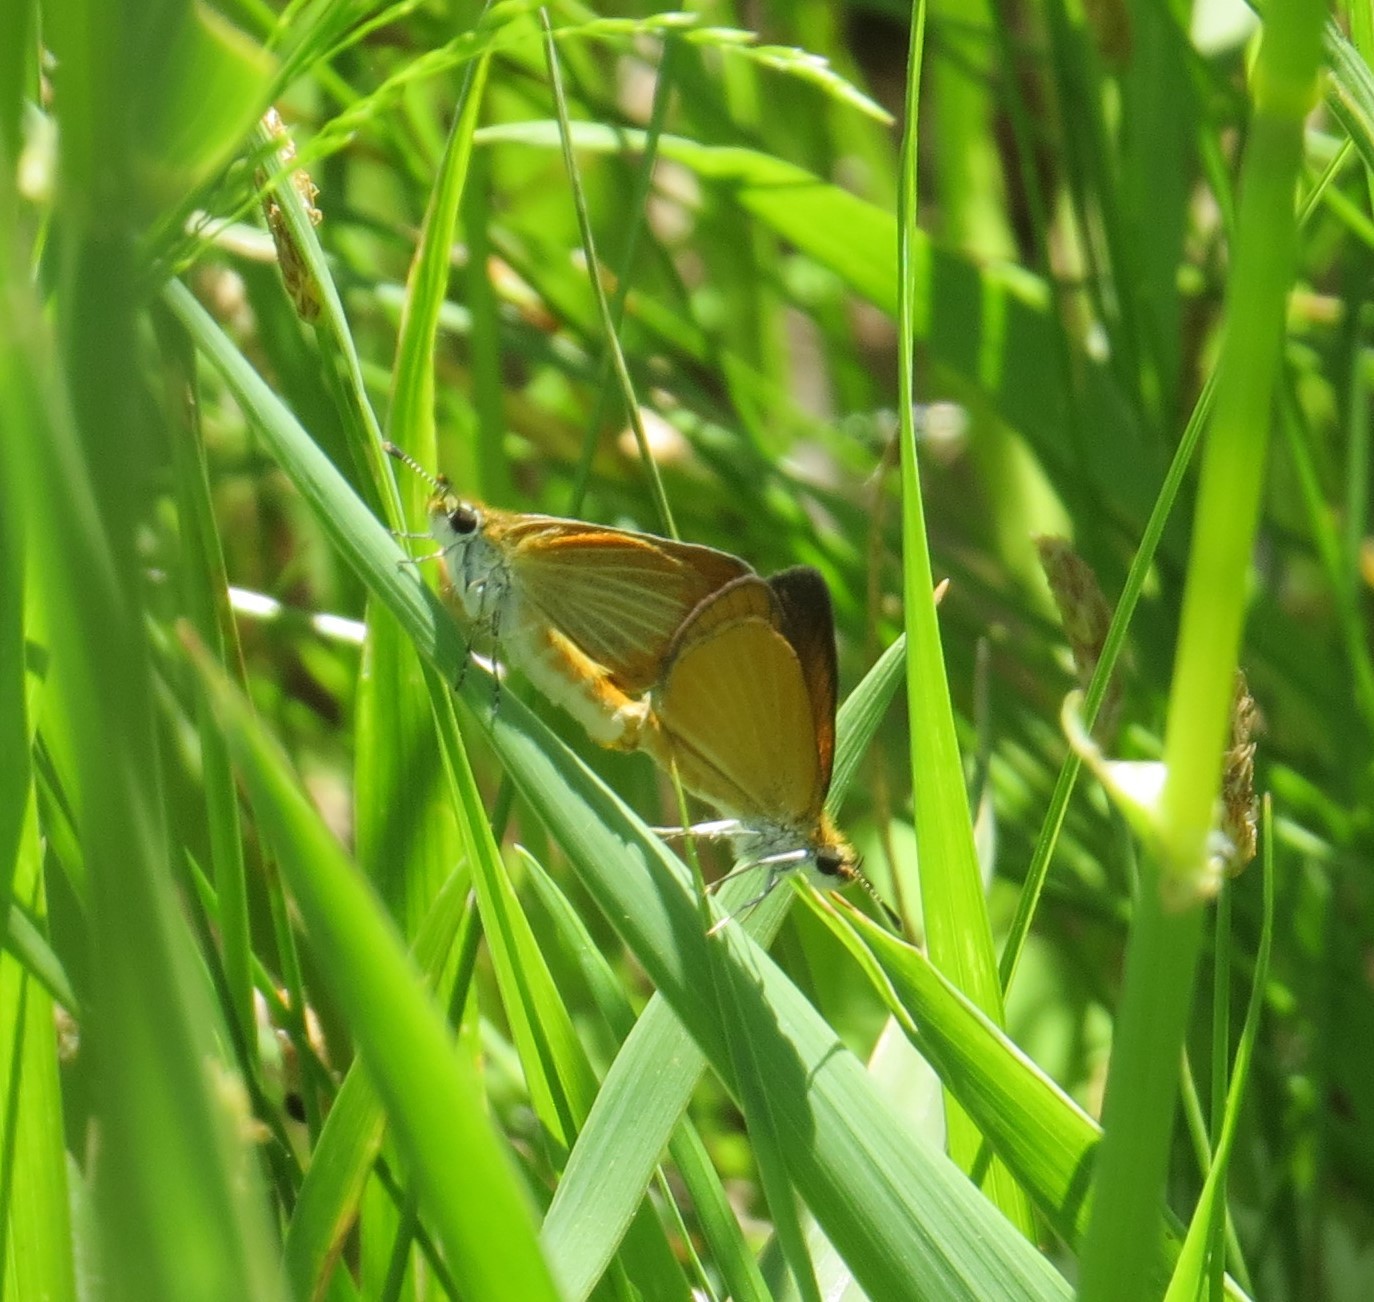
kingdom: Animalia
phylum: Arthropoda
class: Insecta
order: Lepidoptera
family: Hesperiidae
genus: Ancyloxypha
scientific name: Ancyloxypha numitor
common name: Least skipper
